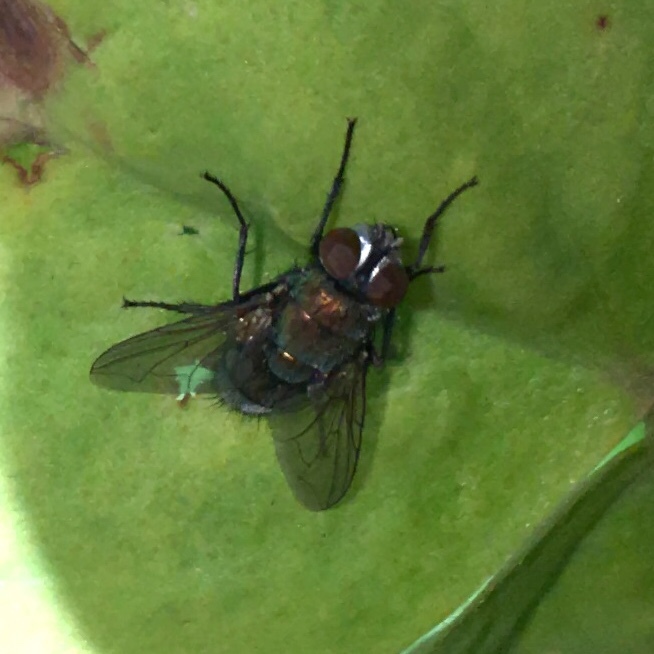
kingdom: Animalia
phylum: Arthropoda
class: Insecta
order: Diptera
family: Calliphoridae
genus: Lucilia
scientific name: Lucilia cuprina
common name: Sheep blow fly
